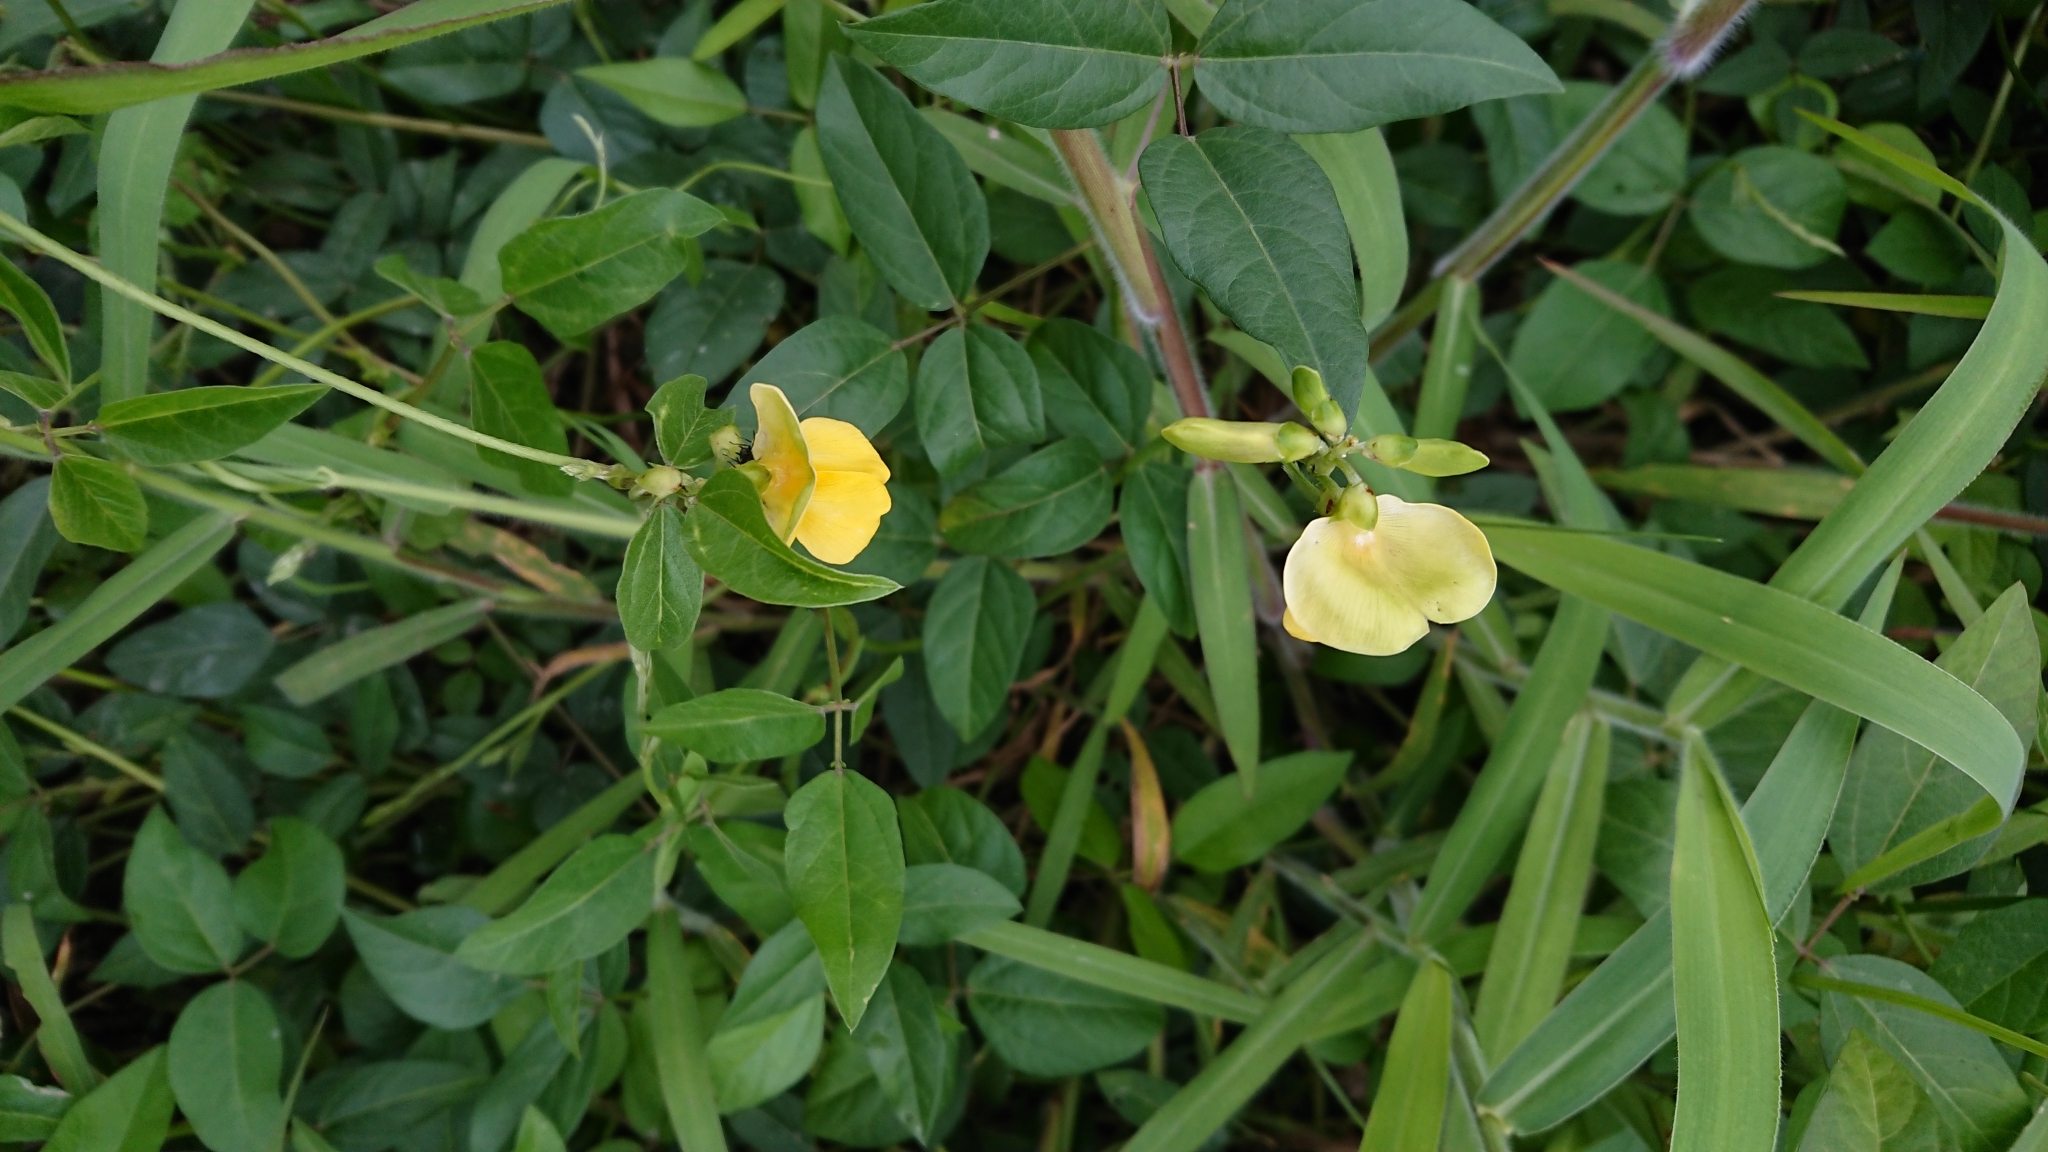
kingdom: Plantae
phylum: Tracheophyta
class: Magnoliopsida
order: Fabales
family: Fabaceae
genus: Vigna
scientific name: Vigna luteola
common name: Hairypod cowpea
